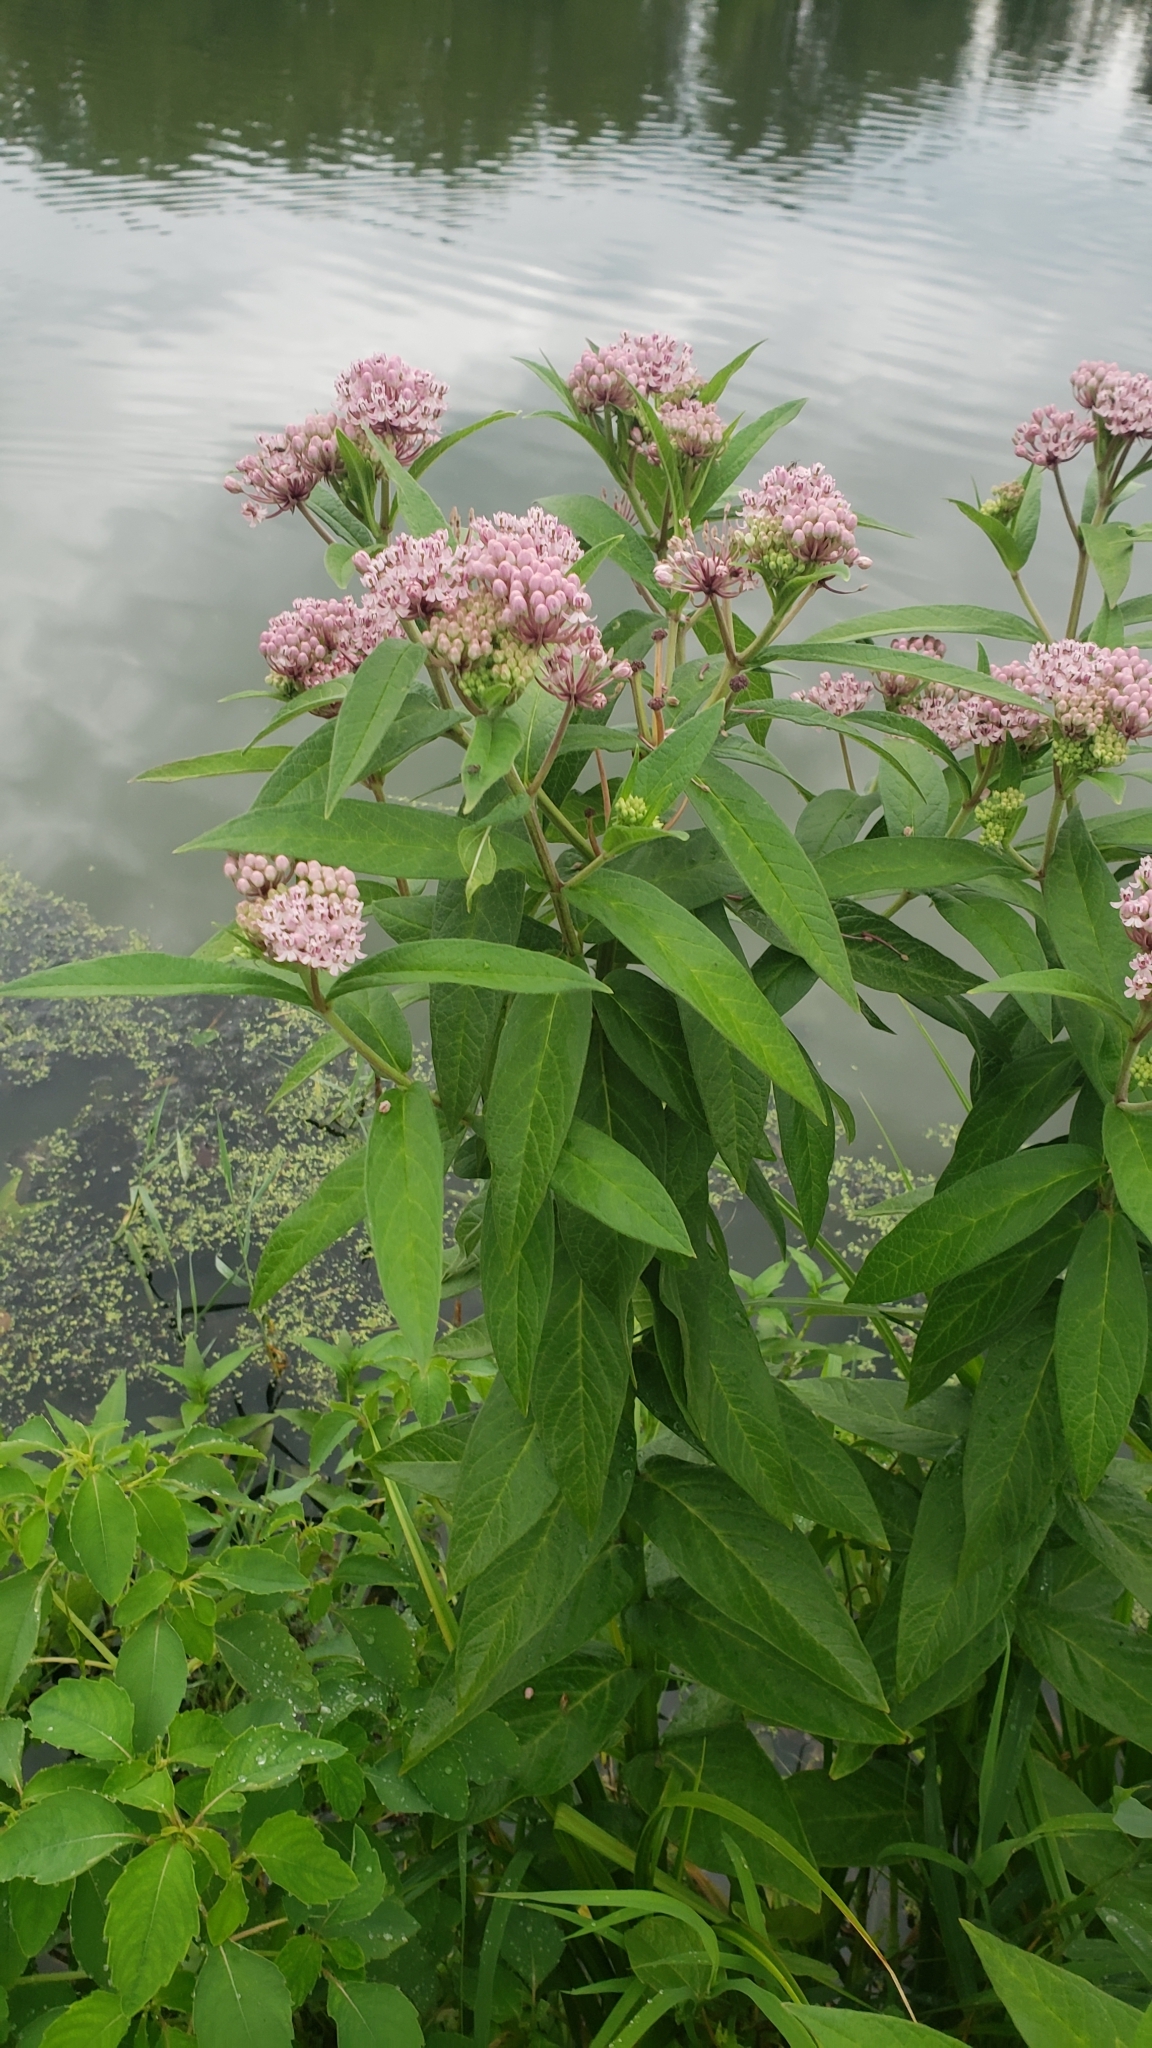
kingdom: Plantae
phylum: Tracheophyta
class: Magnoliopsida
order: Gentianales
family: Apocynaceae
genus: Asclepias
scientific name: Asclepias incarnata
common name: Swamp milkweed
